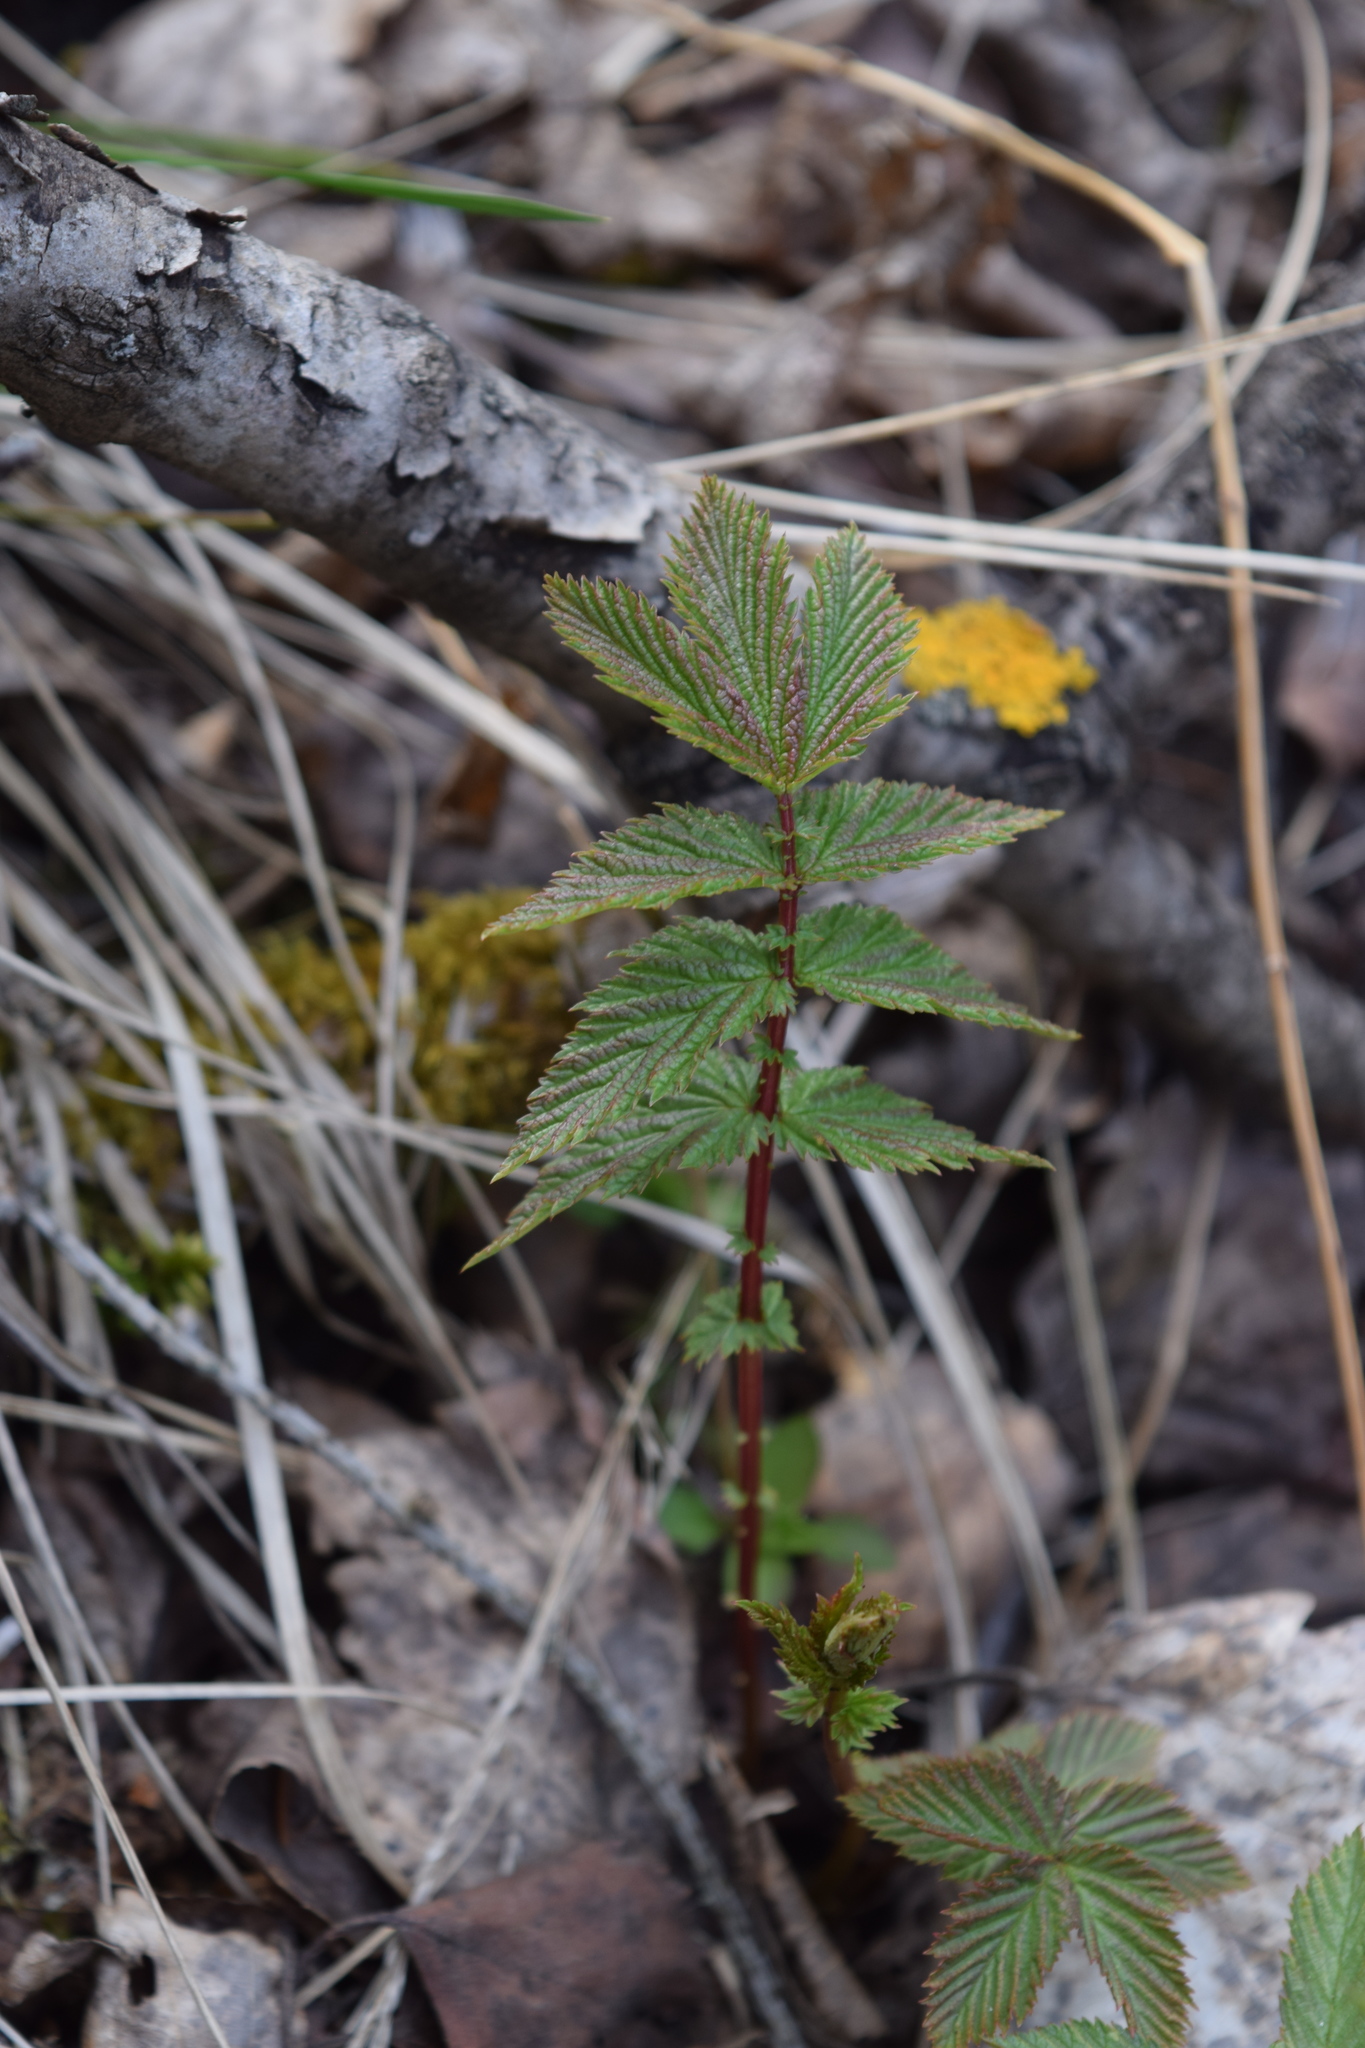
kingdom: Plantae
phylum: Tracheophyta
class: Magnoliopsida
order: Rosales
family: Rosaceae
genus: Filipendula
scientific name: Filipendula ulmaria
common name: Meadowsweet
